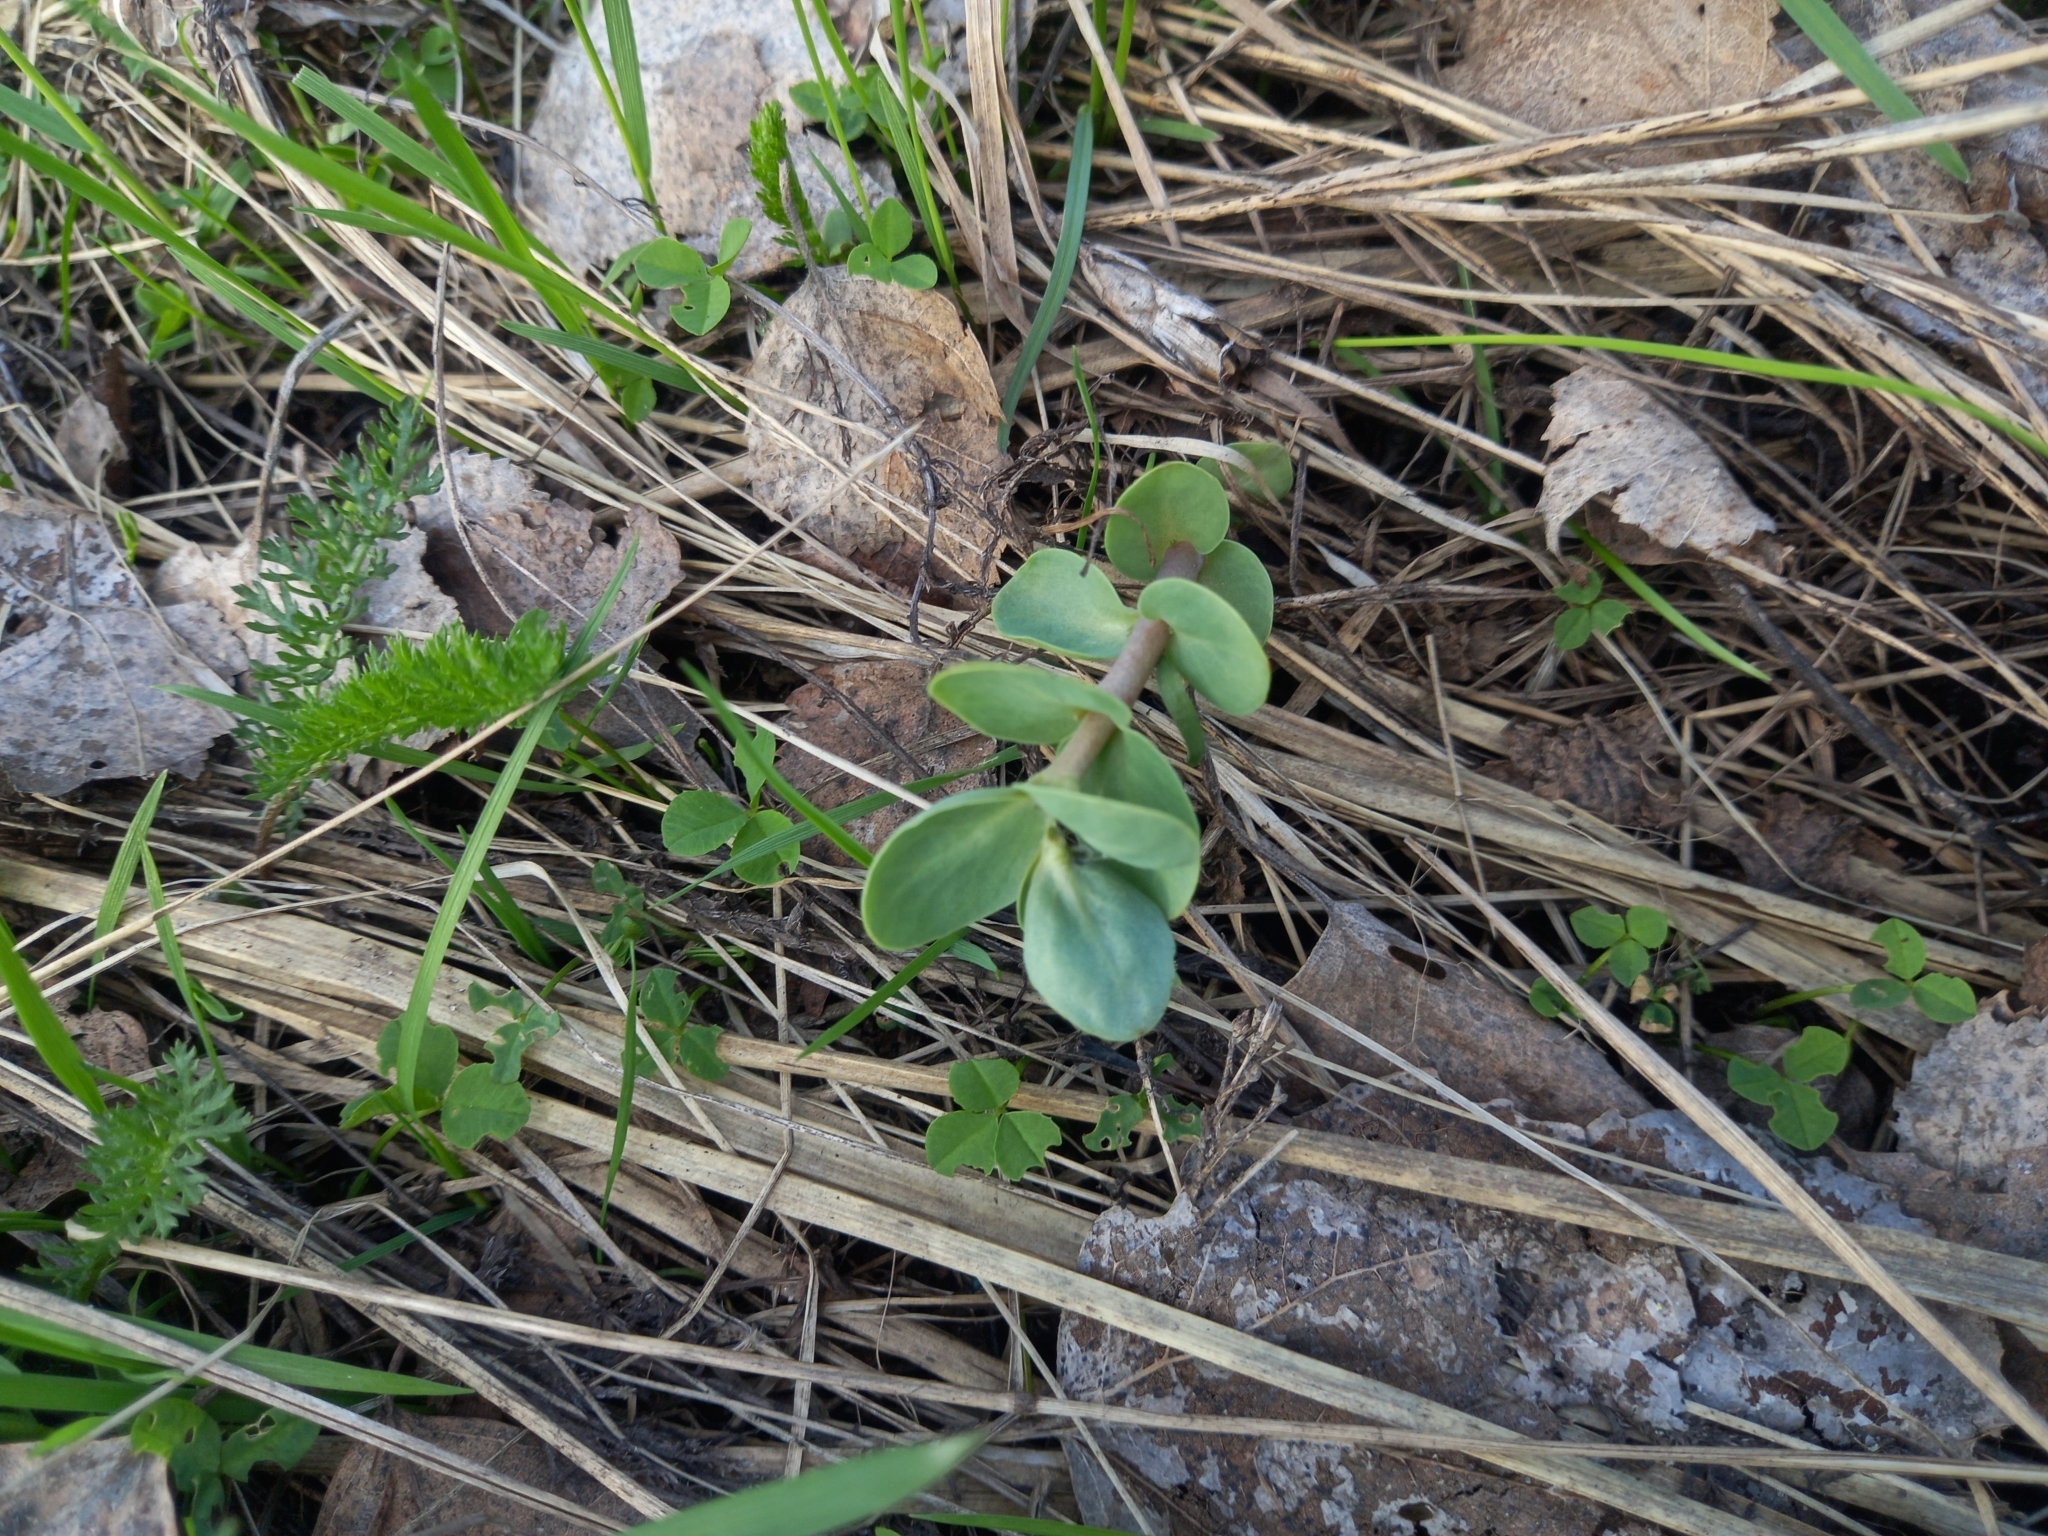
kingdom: Plantae
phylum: Tracheophyta
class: Magnoliopsida
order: Saxifragales
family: Crassulaceae
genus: Hylotelephium
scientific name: Hylotelephium maximum
